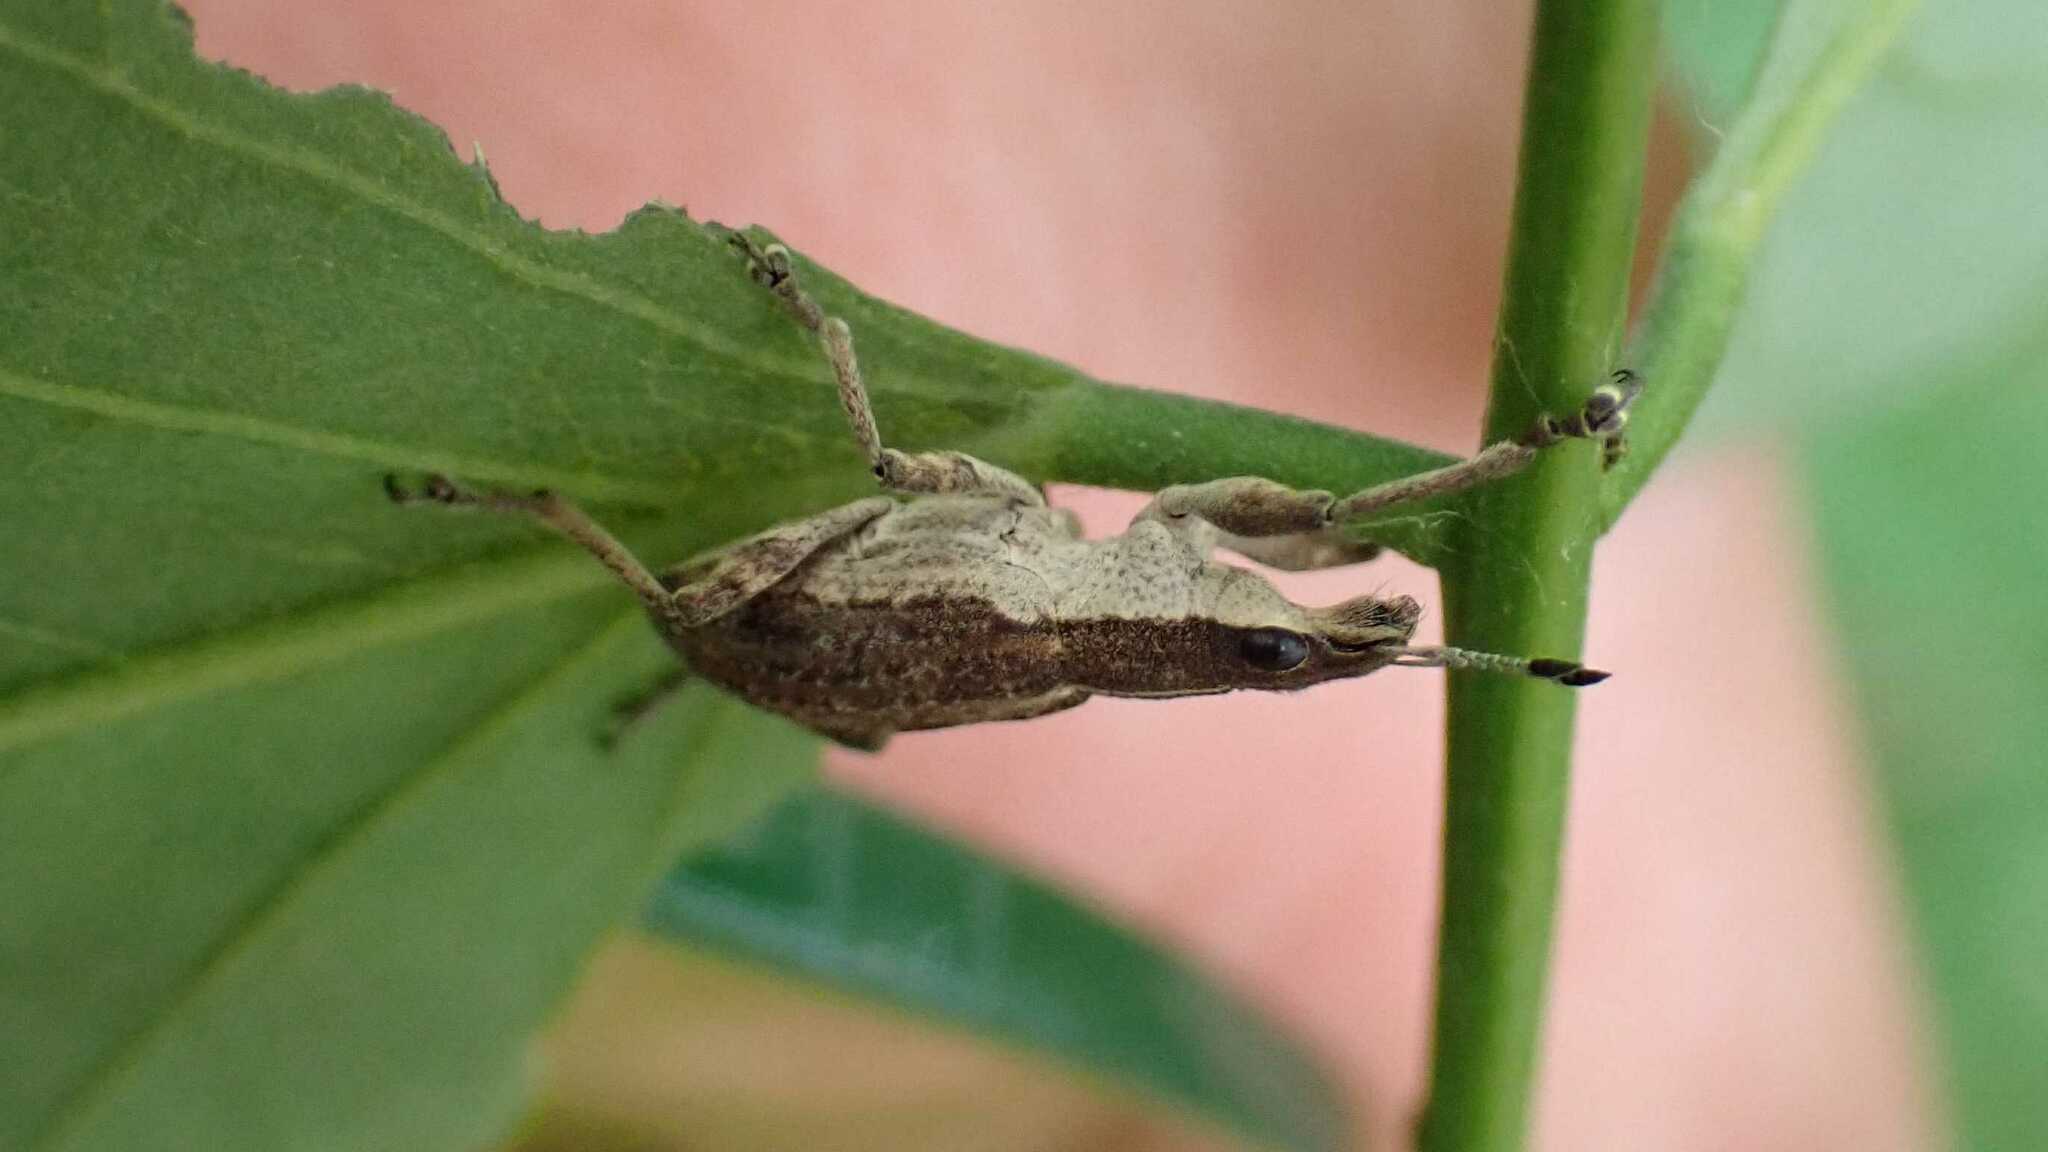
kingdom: Animalia
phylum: Arthropoda
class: Insecta
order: Coleoptera
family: Curculionidae
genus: Charagmus
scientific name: Charagmus gressorius
